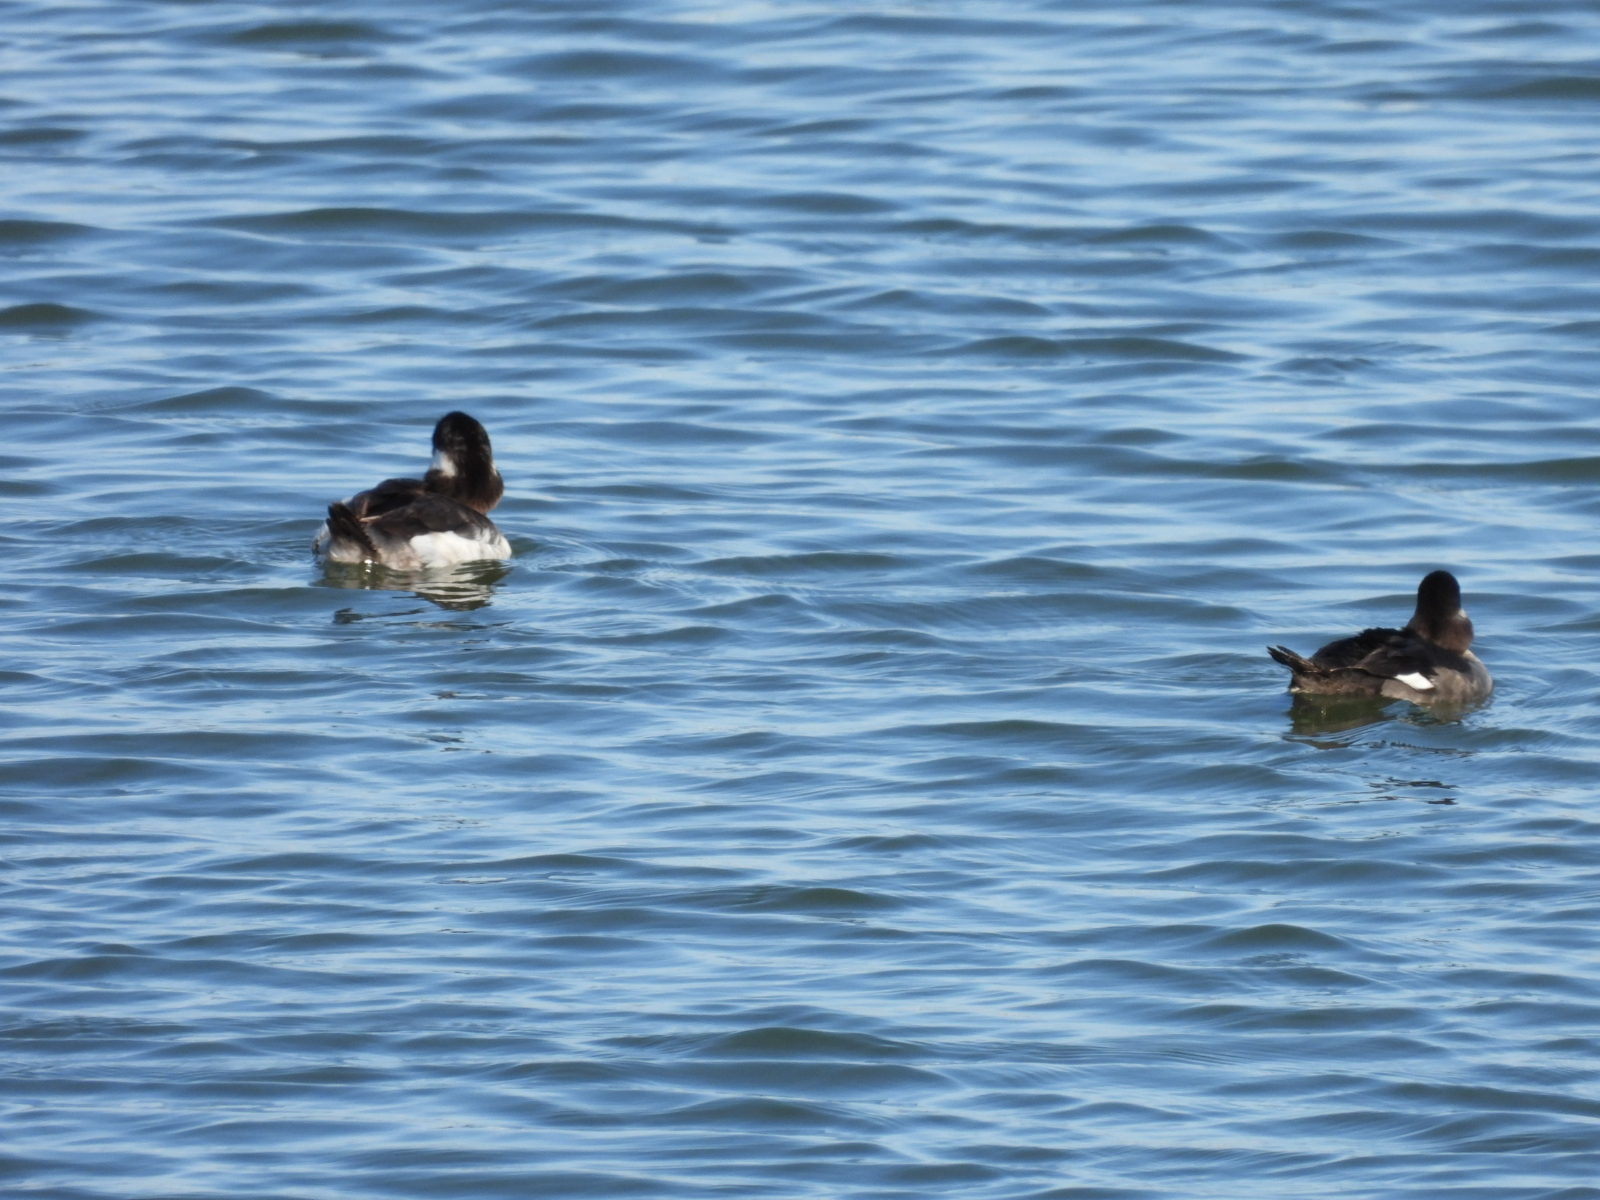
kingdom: Animalia
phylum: Chordata
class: Aves
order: Anseriformes
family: Anatidae
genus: Bucephala
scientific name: Bucephala albeola
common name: Bufflehead
